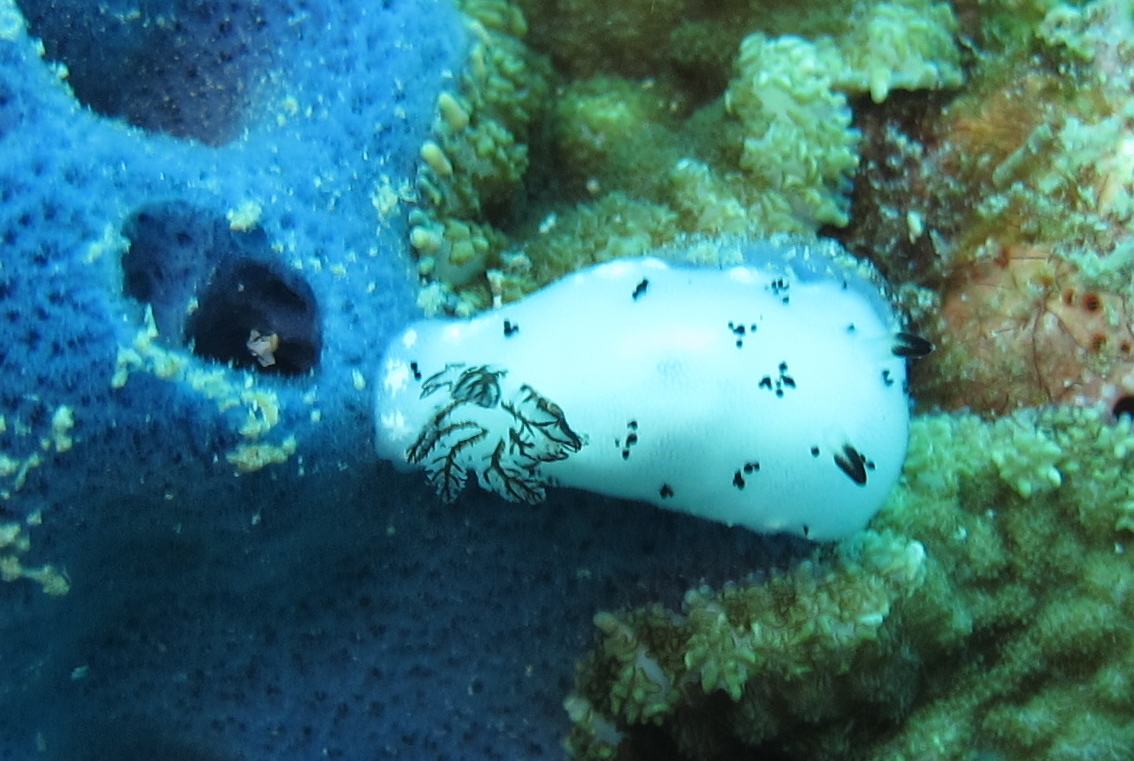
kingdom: Animalia
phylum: Mollusca
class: Gastropoda
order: Nudibranchia
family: Discodorididae
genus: Jorunna
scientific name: Jorunna funebris
